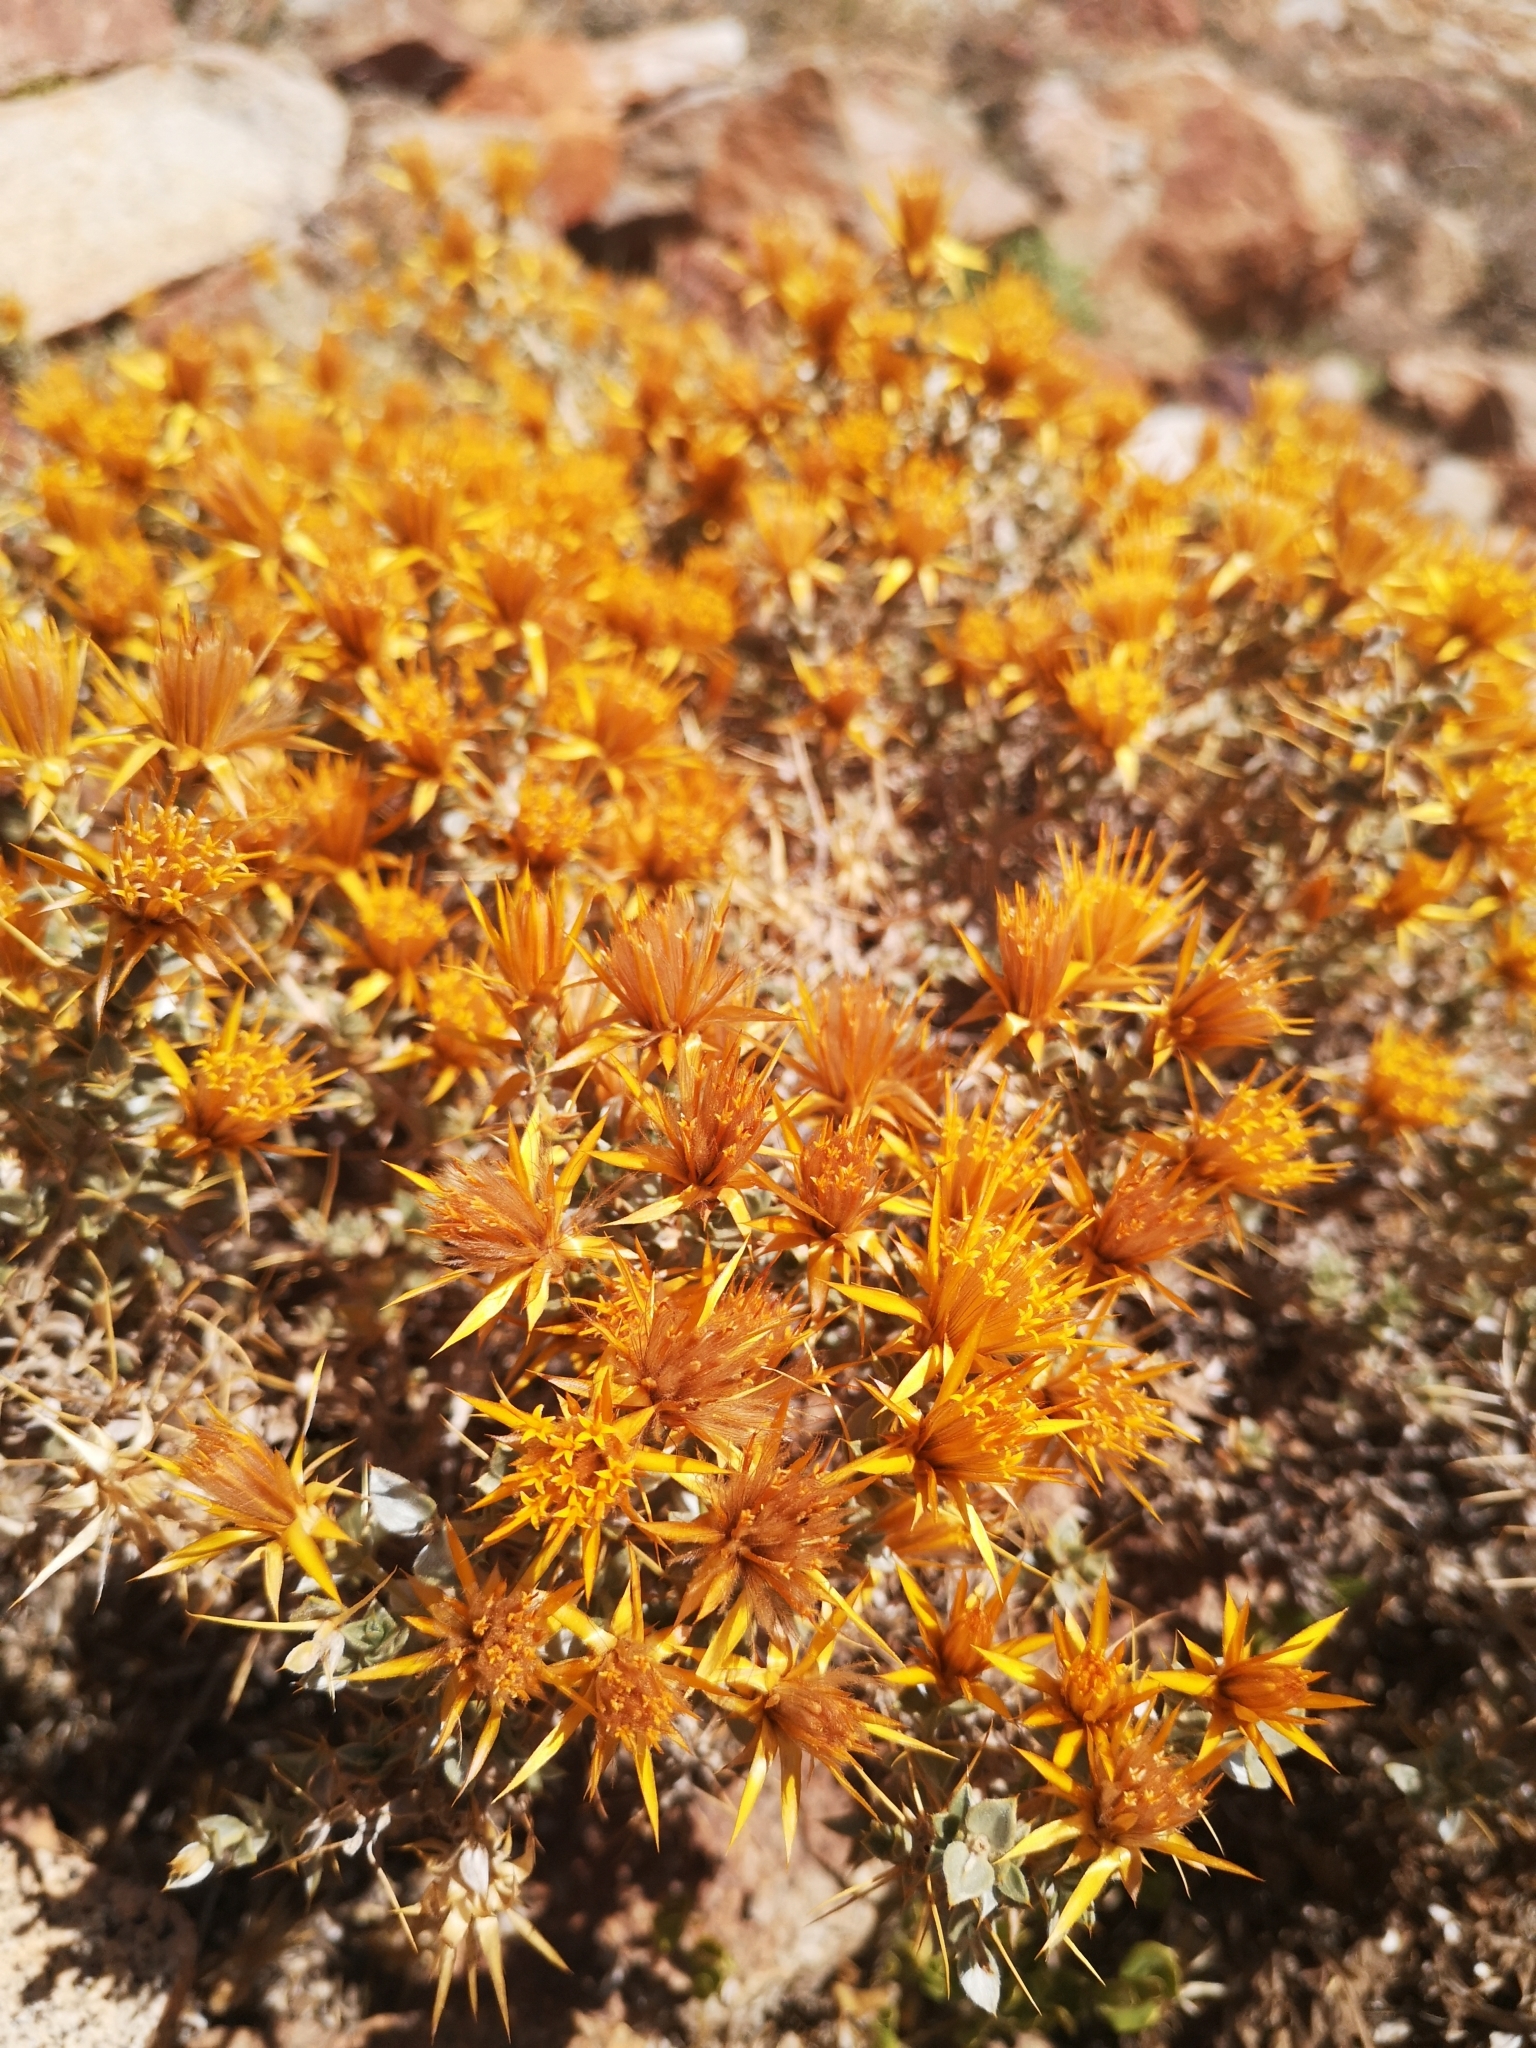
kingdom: Plantae
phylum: Tracheophyta
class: Magnoliopsida
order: Asterales
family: Asteraceae
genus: Chuquiraga
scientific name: Chuquiraga oppositifolia
